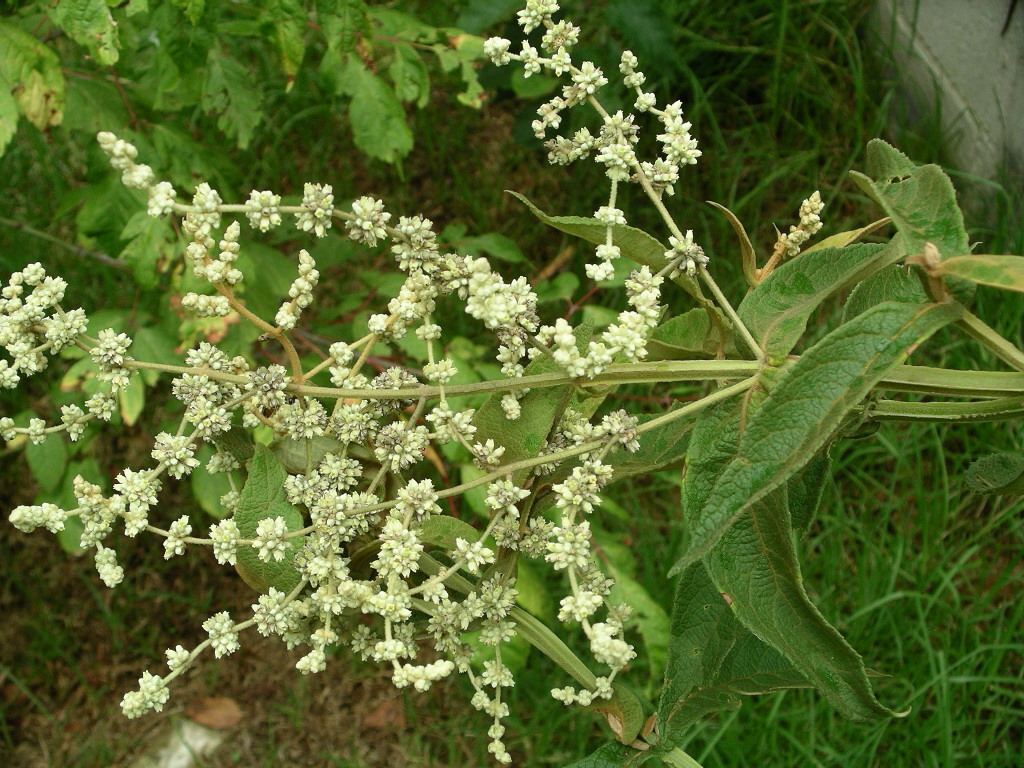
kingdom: Plantae
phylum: Tracheophyta
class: Magnoliopsida
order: Lamiales
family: Scrophulariaceae
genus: Buddleja
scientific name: Buddleja americana
